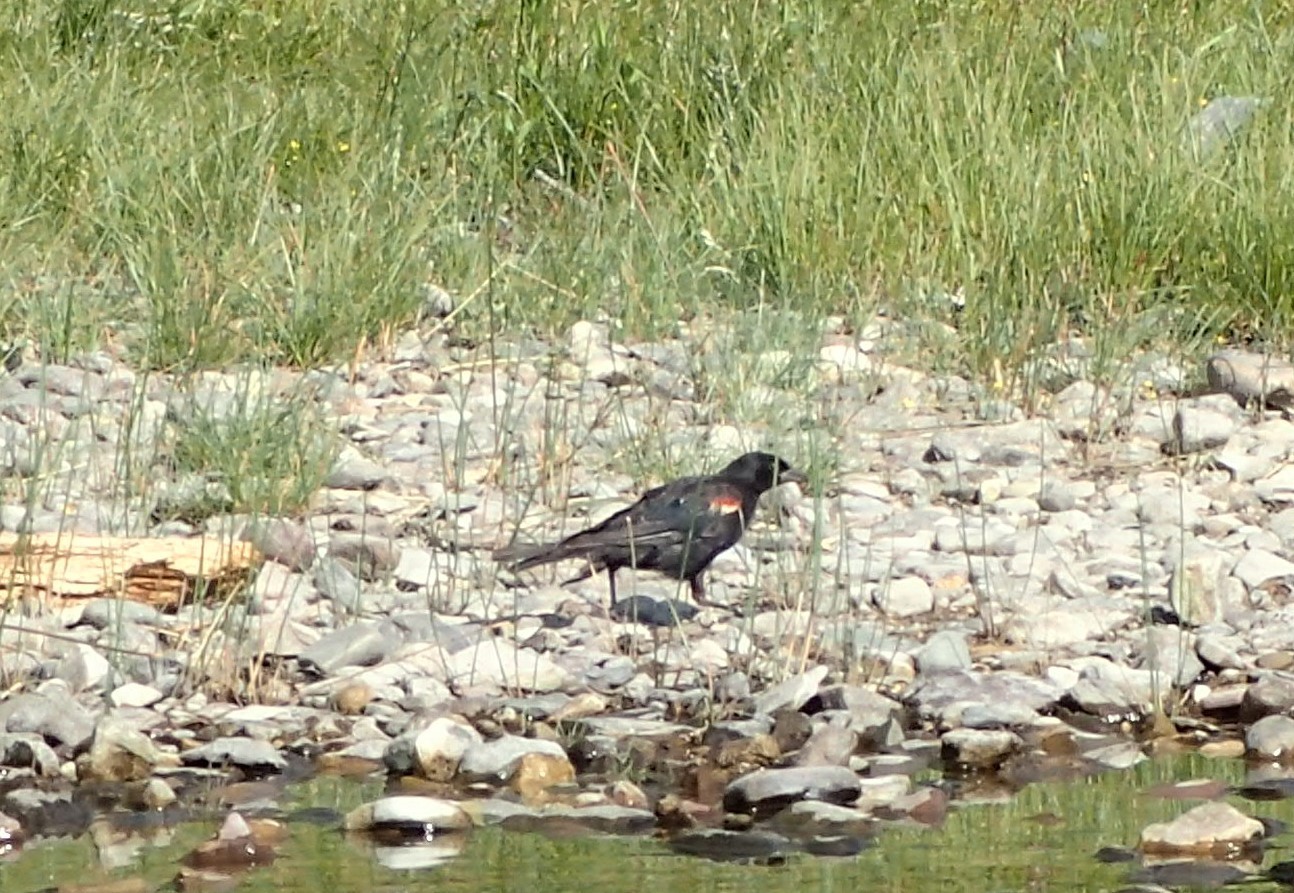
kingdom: Animalia
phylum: Chordata
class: Aves
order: Passeriformes
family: Icteridae
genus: Agelaius
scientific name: Agelaius phoeniceus
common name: Red-winged blackbird
